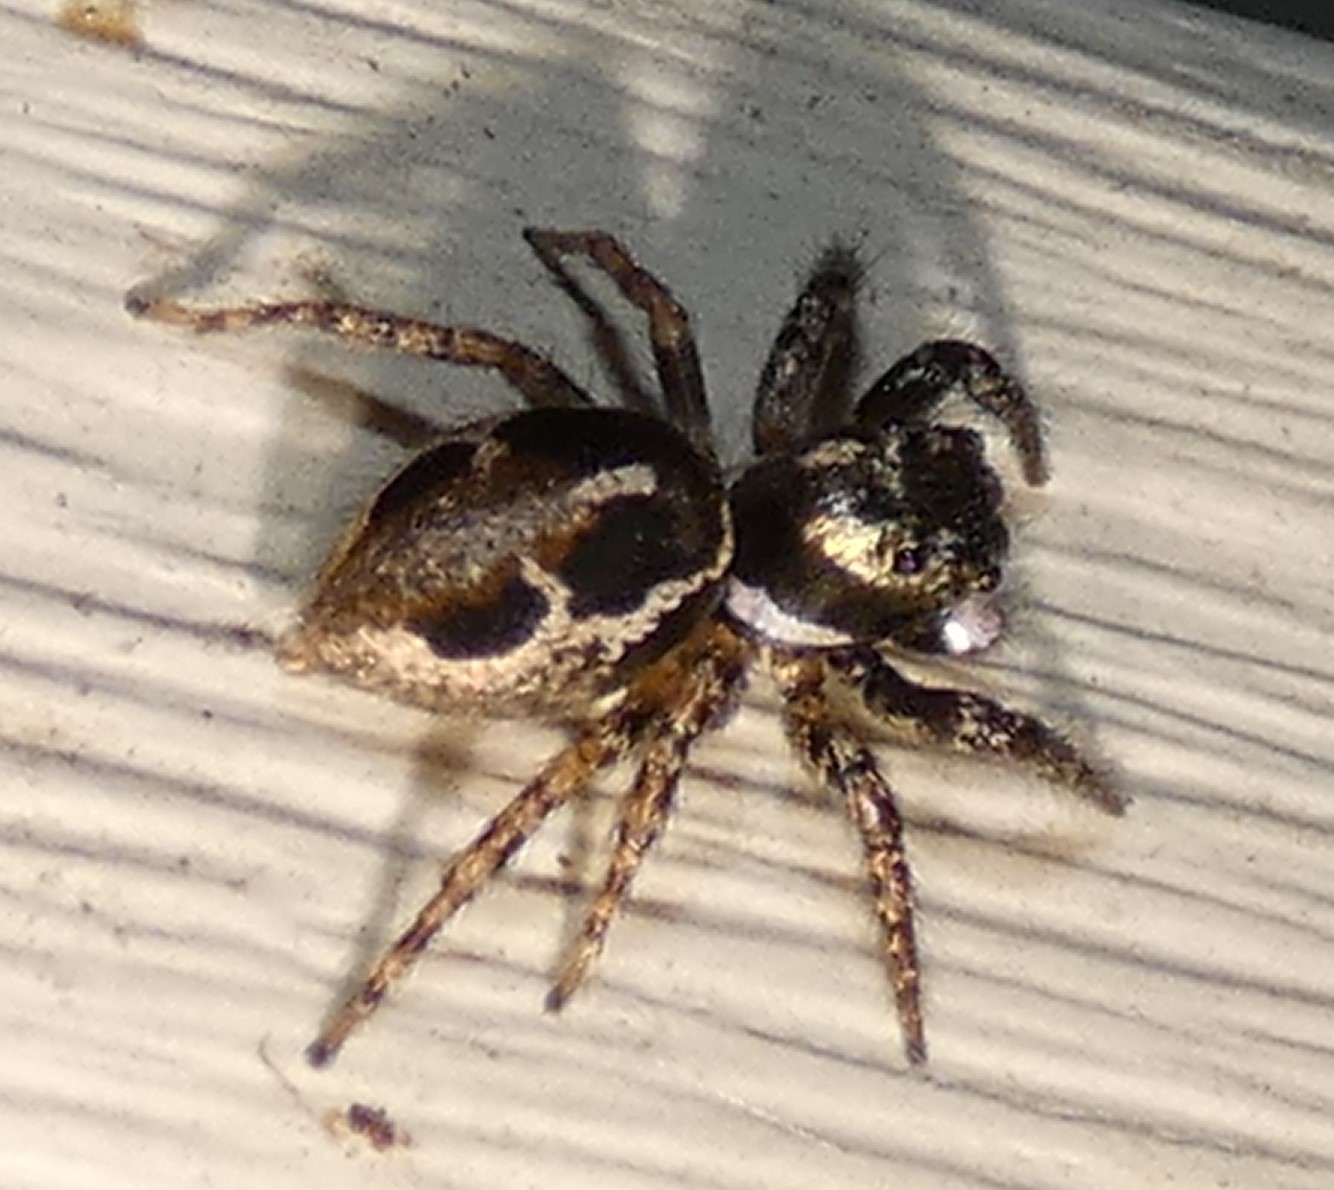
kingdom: Animalia
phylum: Arthropoda
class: Arachnida
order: Araneae
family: Salticidae
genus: Anasaitis
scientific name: Anasaitis canosa
